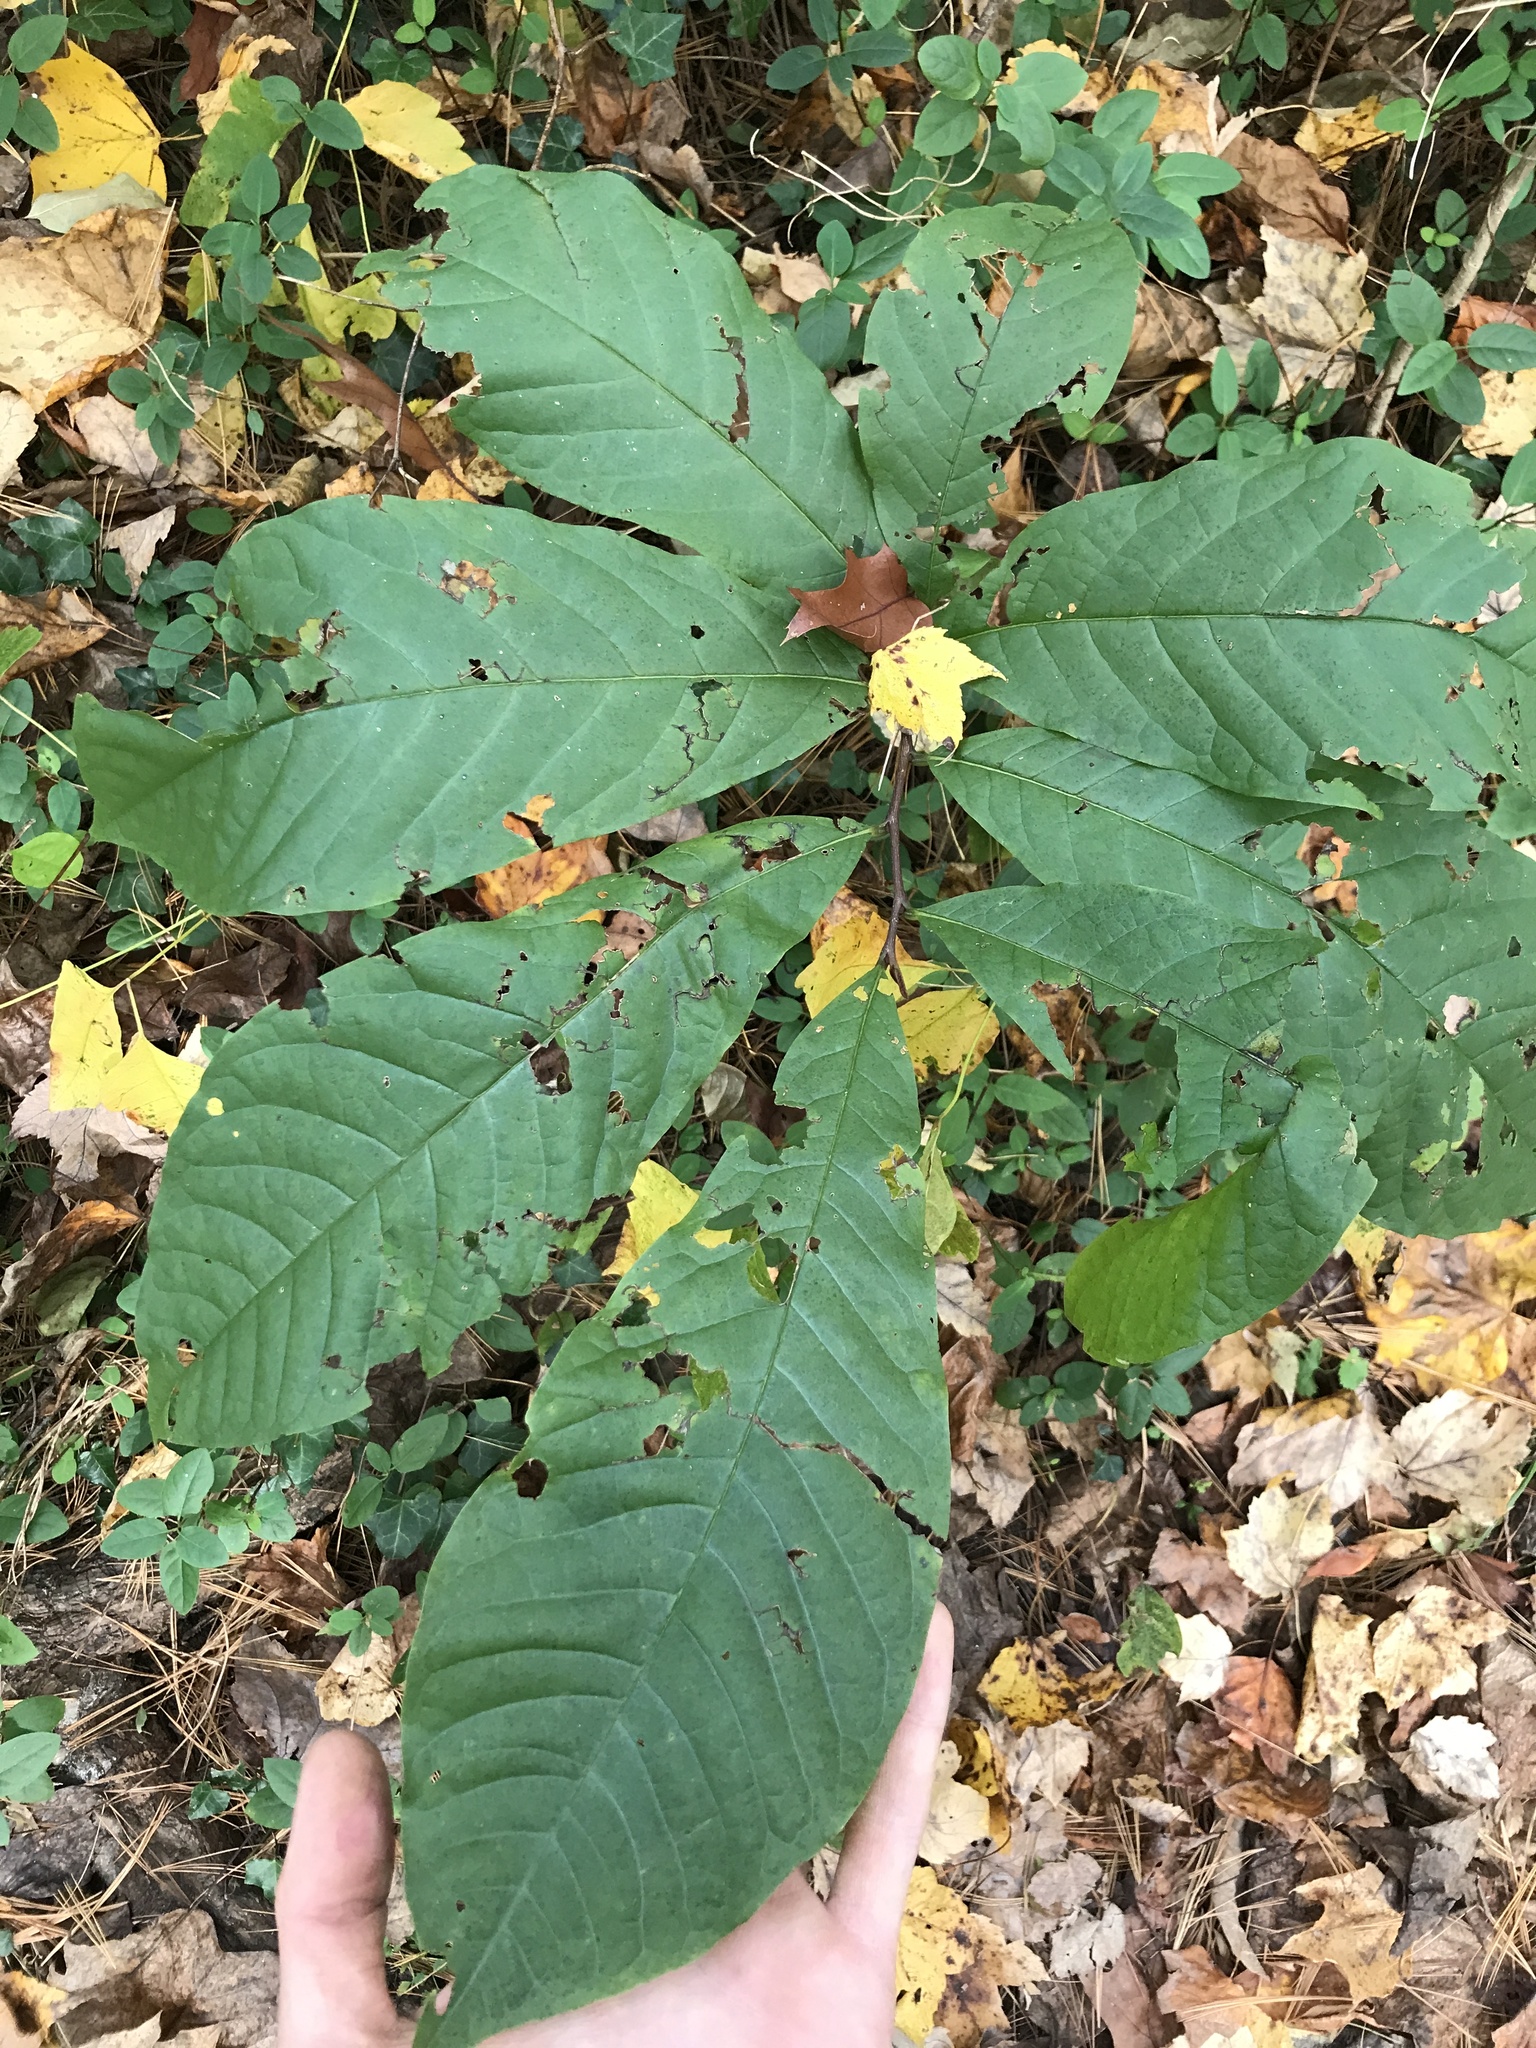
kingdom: Plantae
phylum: Tracheophyta
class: Magnoliopsida
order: Magnoliales
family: Annonaceae
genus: Asimina
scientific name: Asimina triloba
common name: Dog-banana
